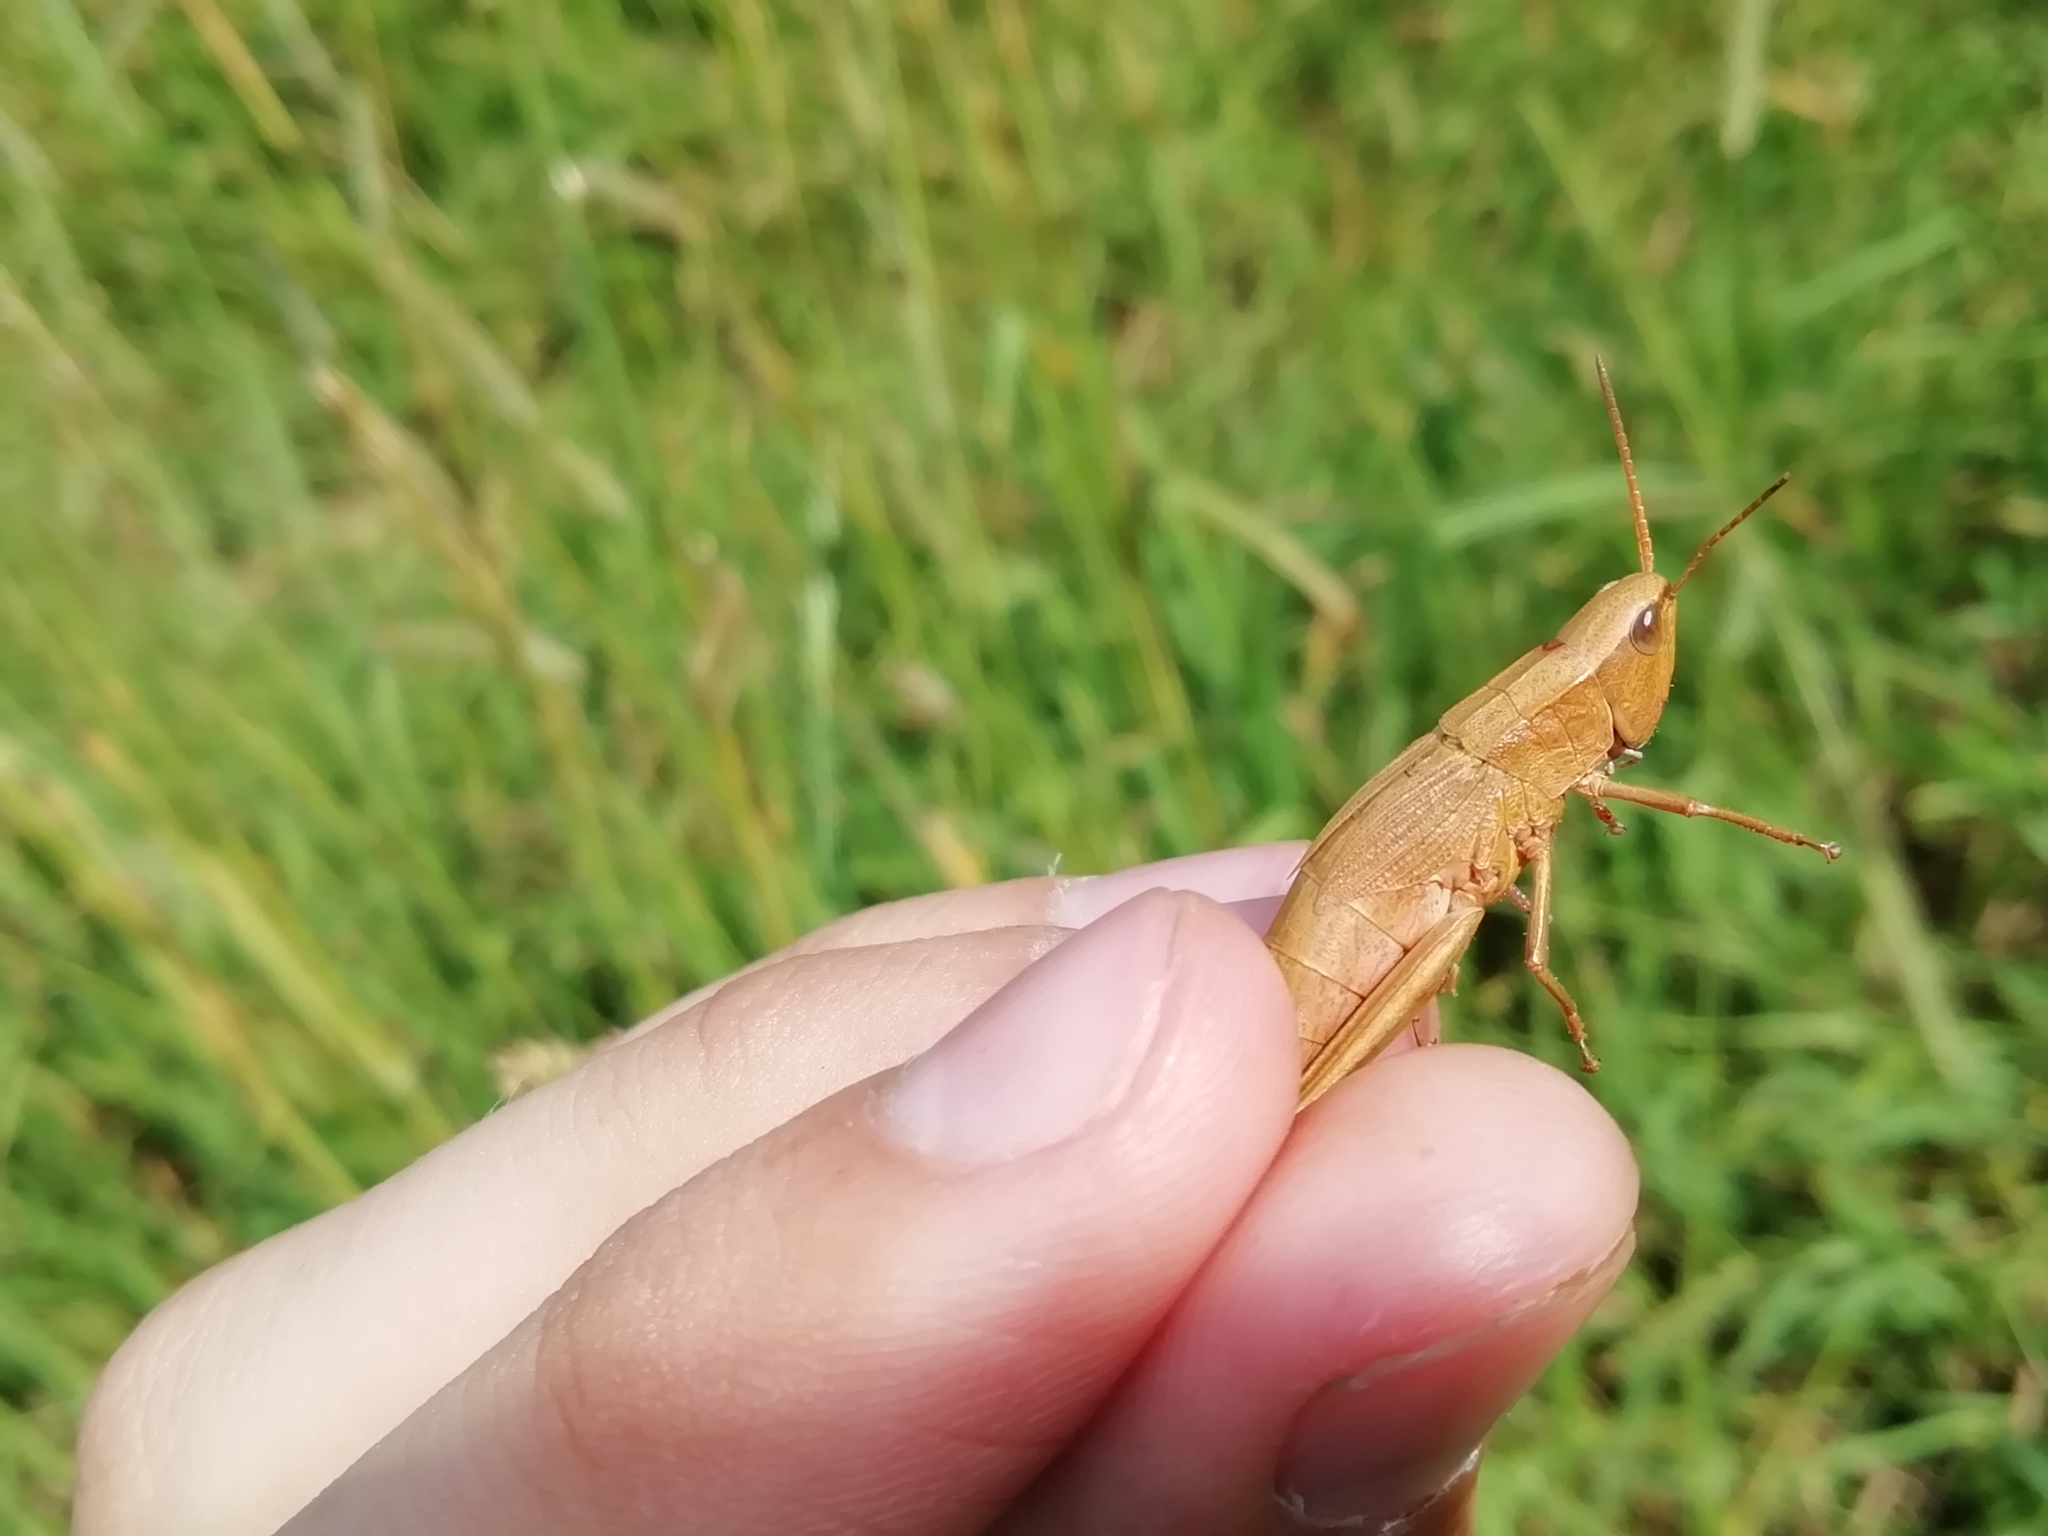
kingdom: Animalia
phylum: Arthropoda
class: Insecta
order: Orthoptera
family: Acrididae
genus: Chrysochraon
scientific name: Chrysochraon dispar
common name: Large gold grasshopper
